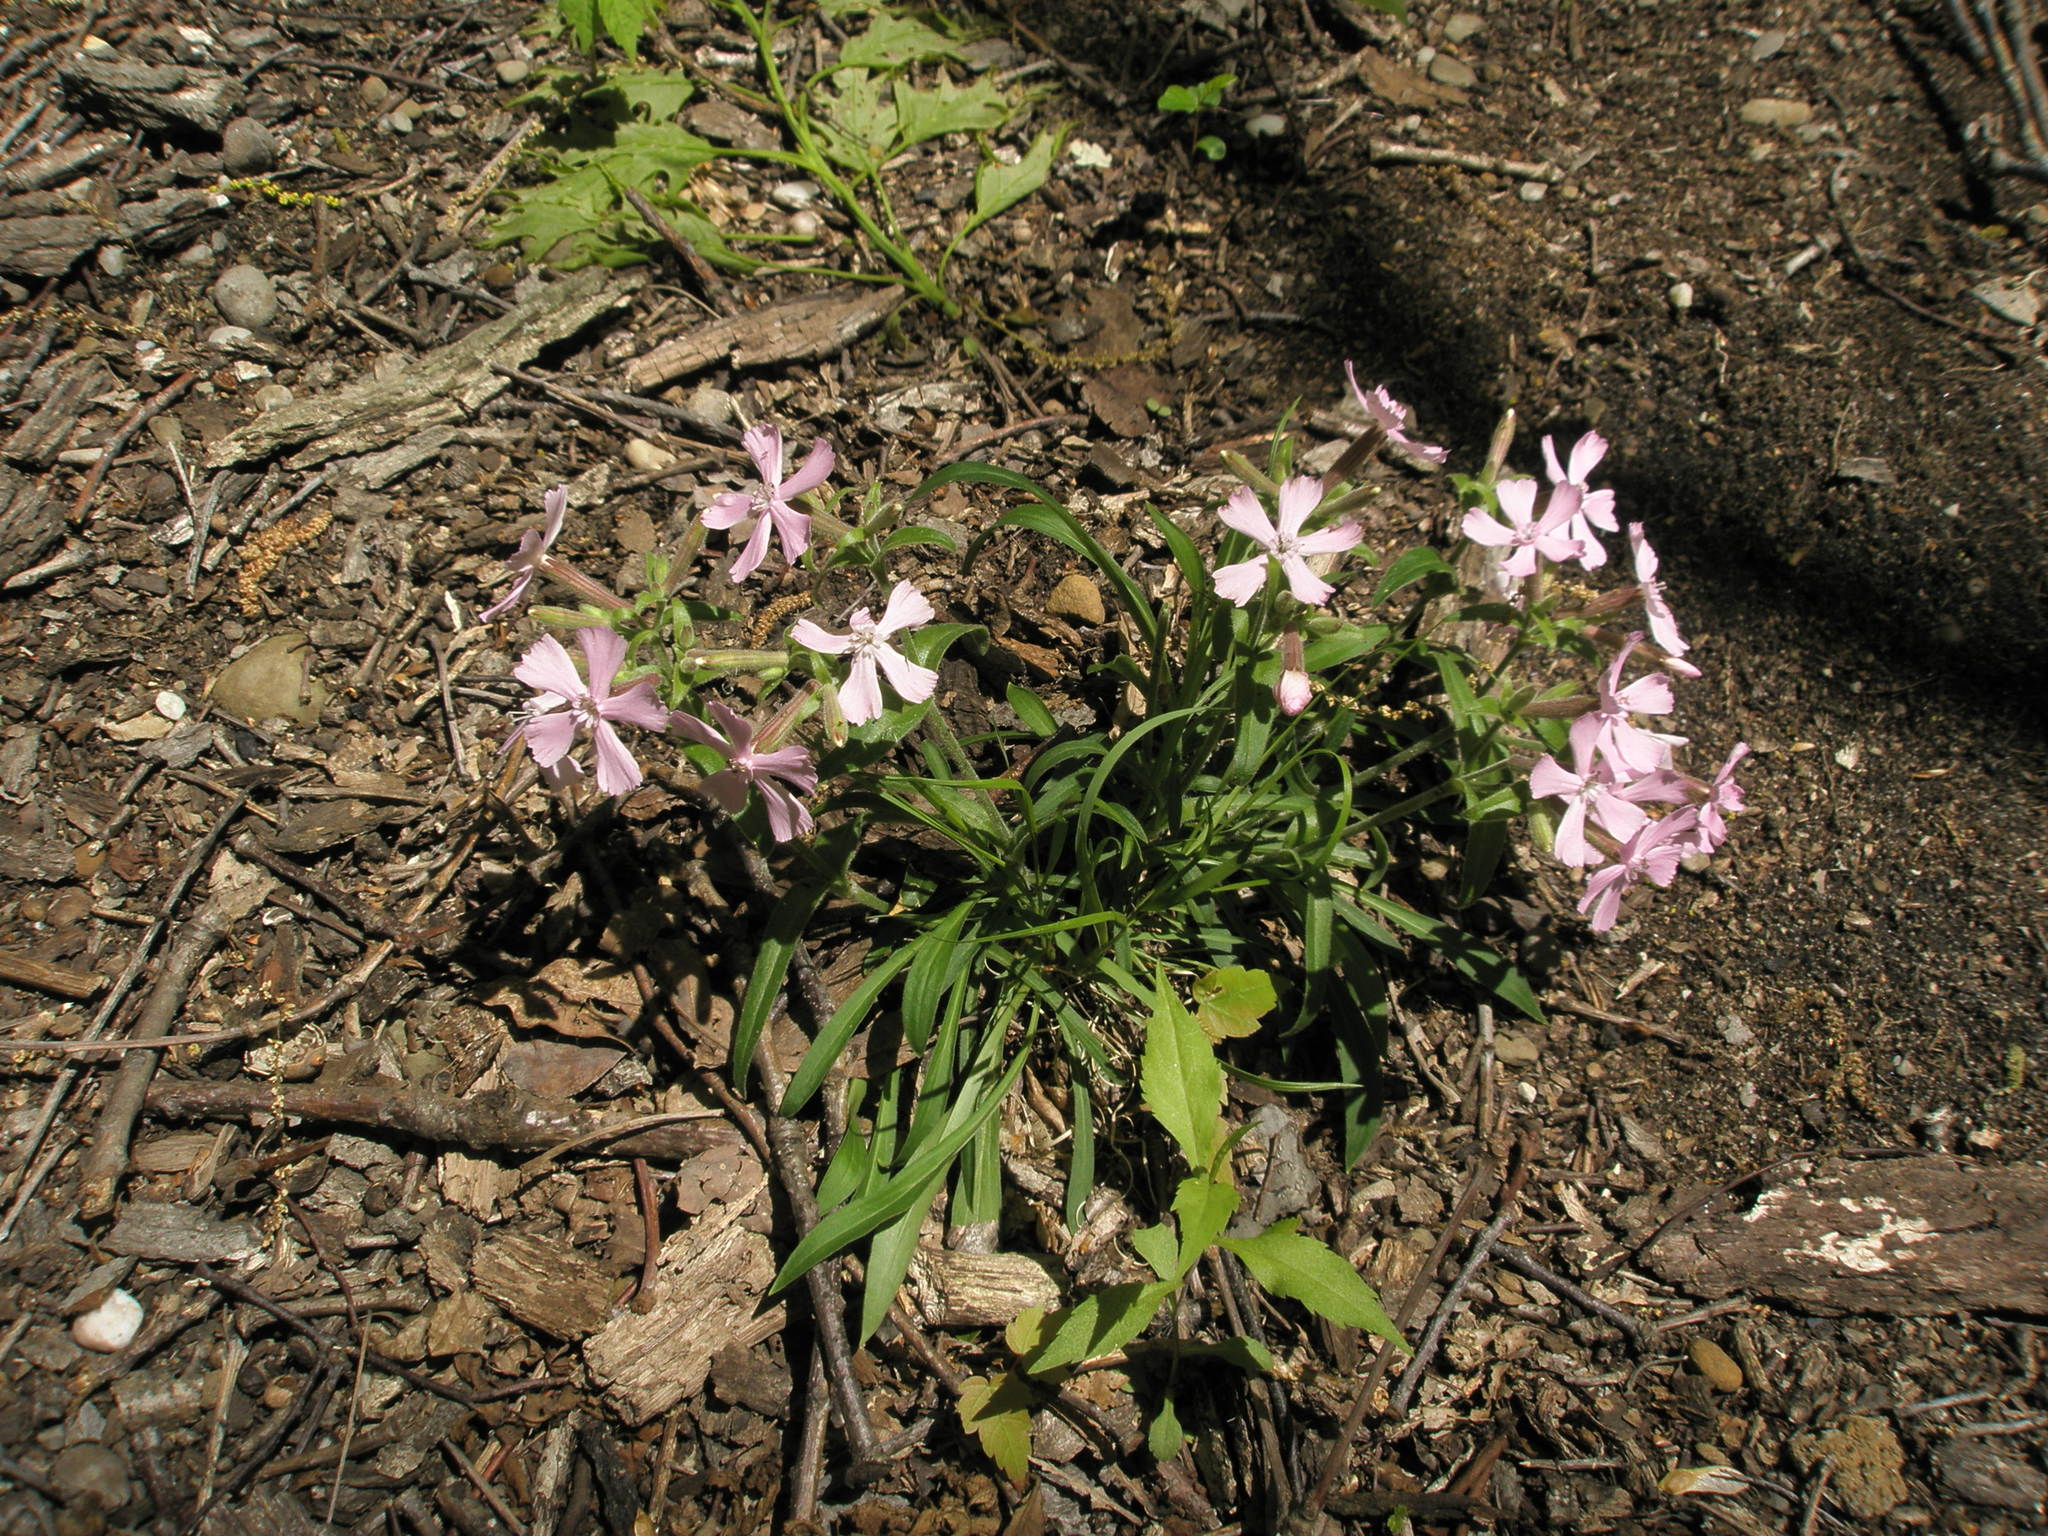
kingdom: Plantae
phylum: Tracheophyta
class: Magnoliopsida
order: Caryophyllales
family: Caryophyllaceae
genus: Silene
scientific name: Silene caroliniana
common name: Sticky catchfly
